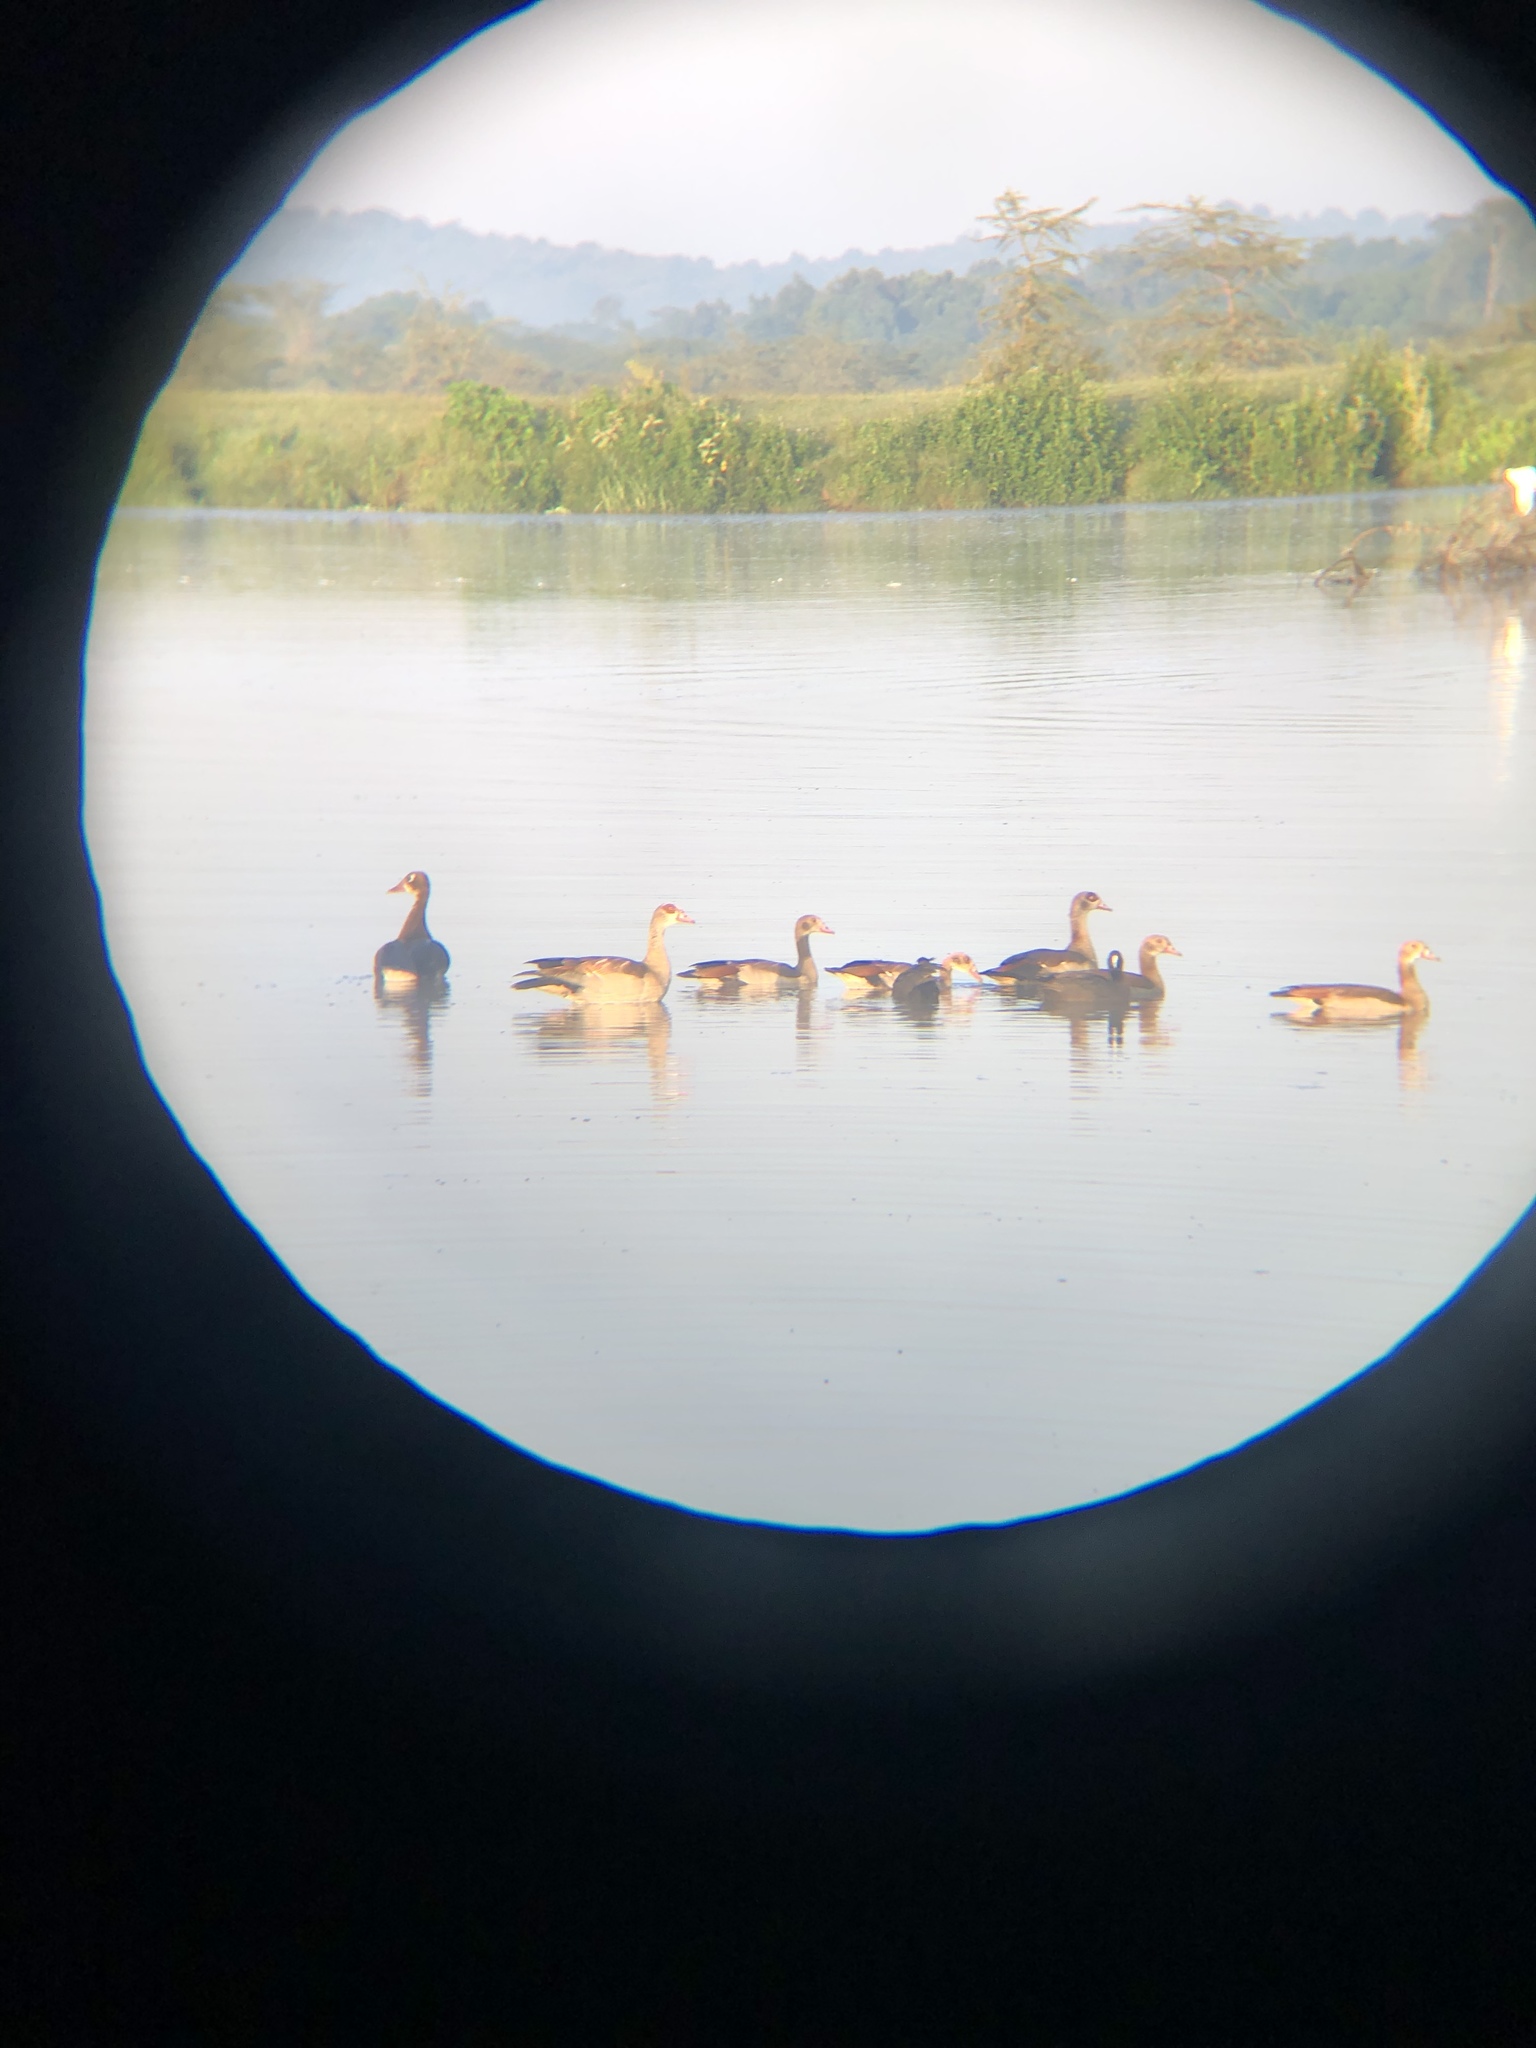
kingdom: Animalia
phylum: Chordata
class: Aves
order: Anseriformes
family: Anatidae
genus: Alopochen
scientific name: Alopochen aegyptiaca
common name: Egyptian goose
